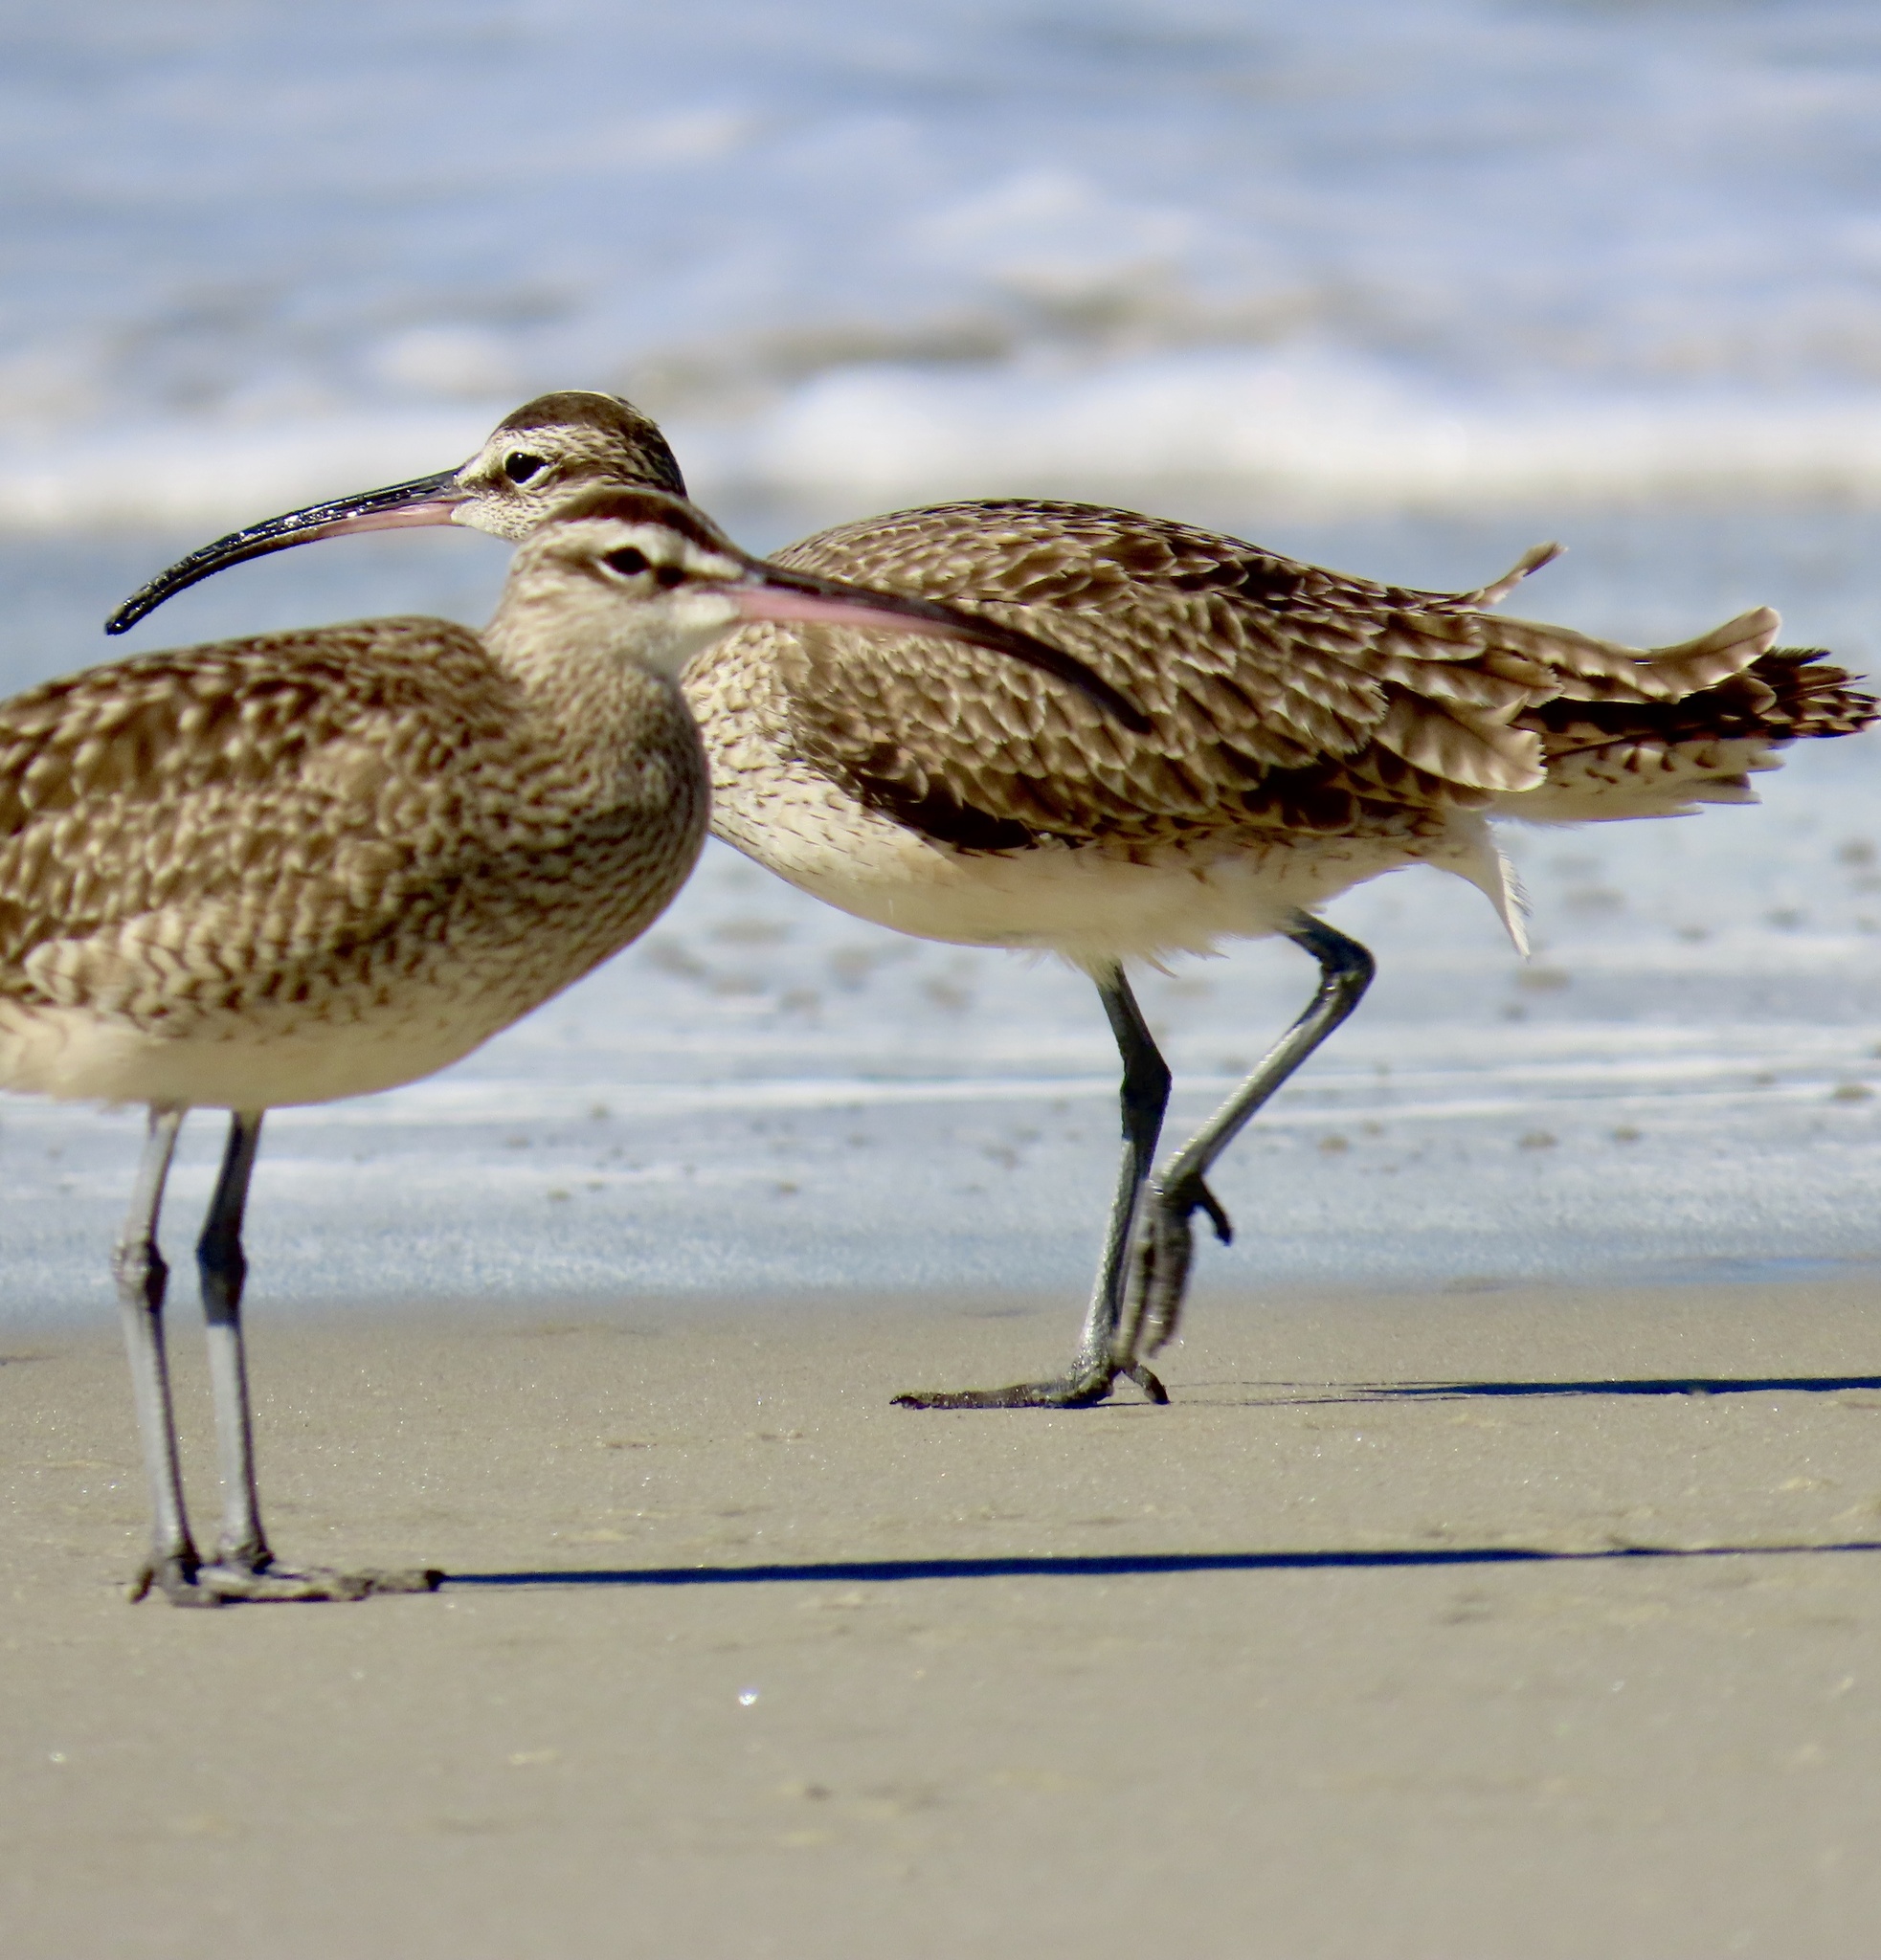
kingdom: Animalia
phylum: Chordata
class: Aves
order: Charadriiformes
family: Scolopacidae
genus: Numenius
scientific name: Numenius phaeopus
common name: Whimbrel
